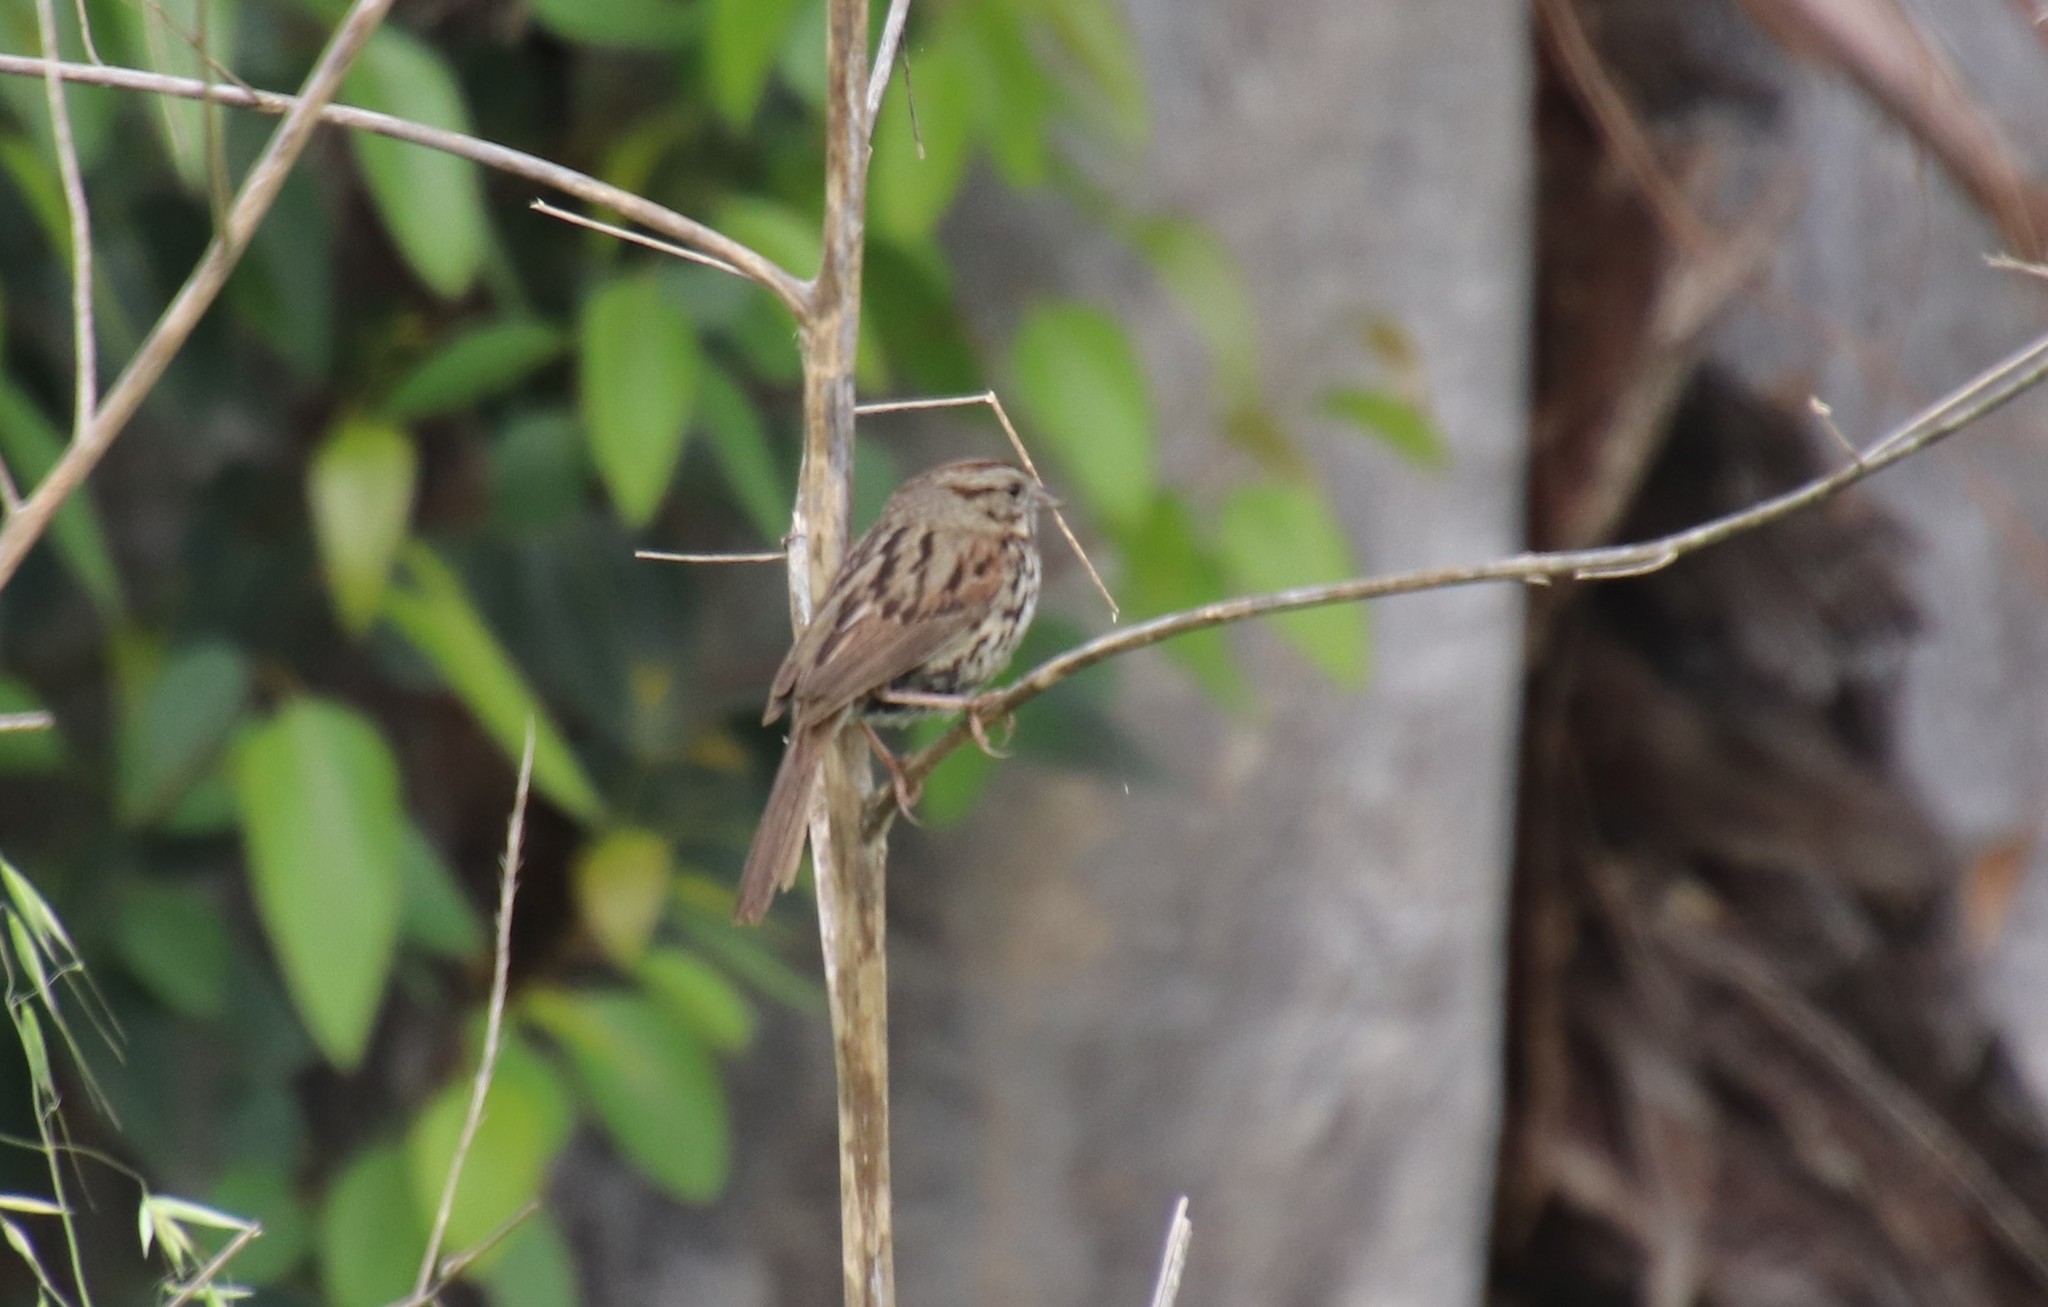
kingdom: Animalia
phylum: Chordata
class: Aves
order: Passeriformes
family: Passerellidae
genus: Melospiza
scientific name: Melospiza melodia
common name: Song sparrow
